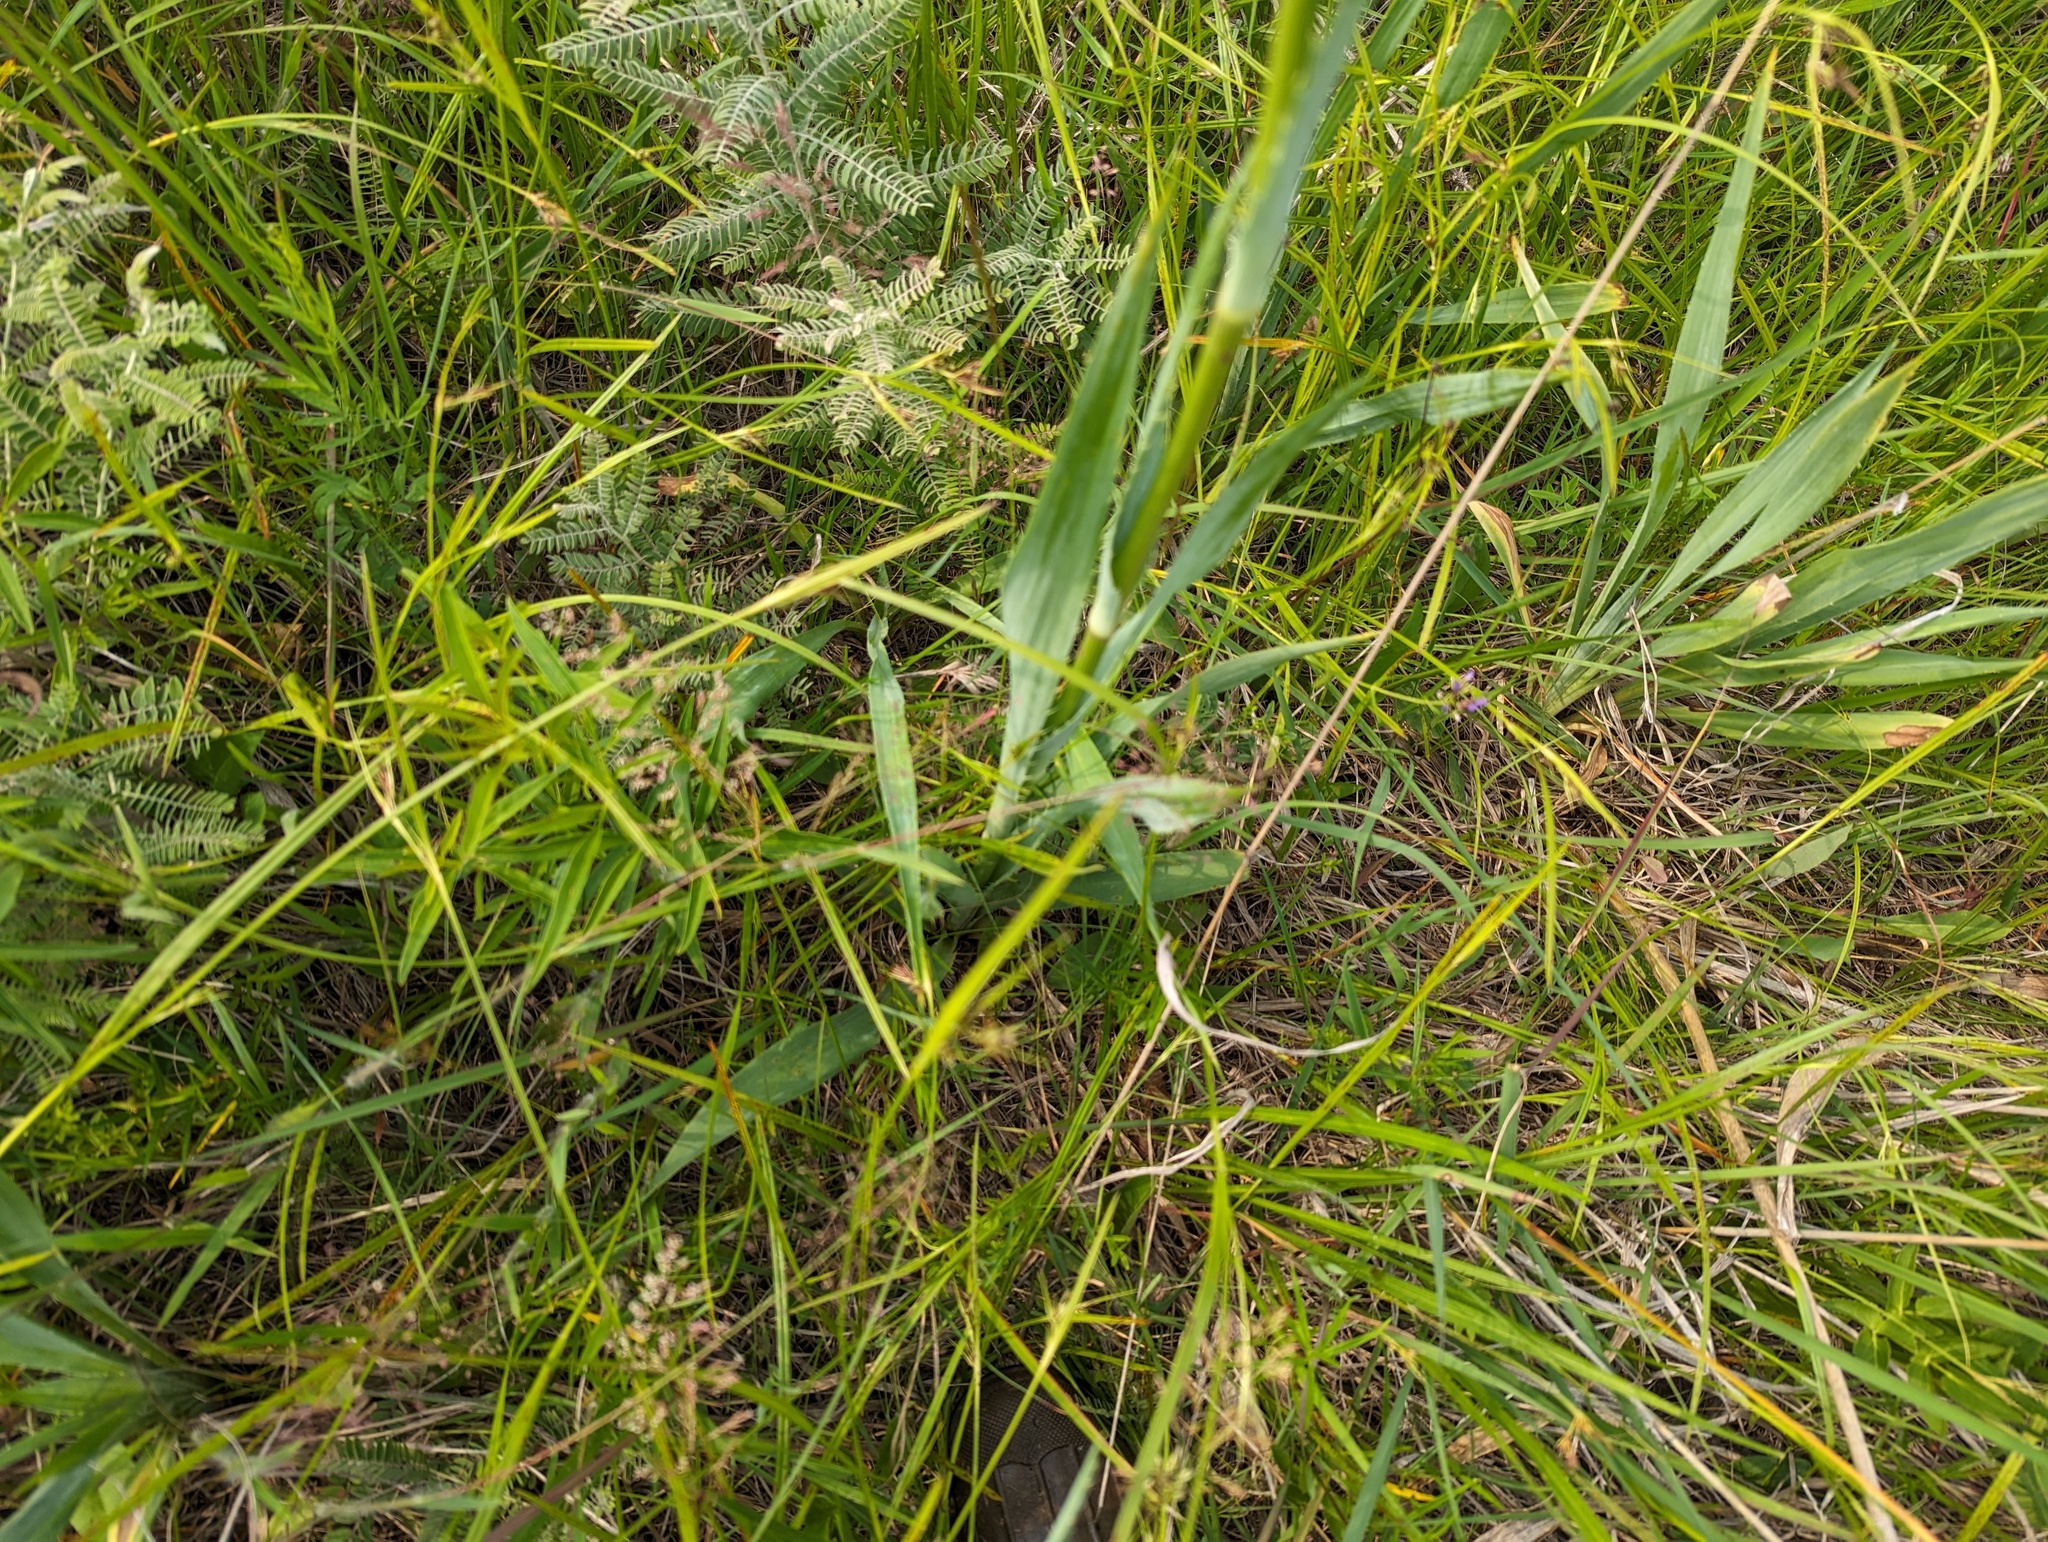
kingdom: Plantae
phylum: Tracheophyta
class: Magnoliopsida
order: Apiales
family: Apiaceae
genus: Eryngium
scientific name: Eryngium yuccifolium
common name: Button eryngo
